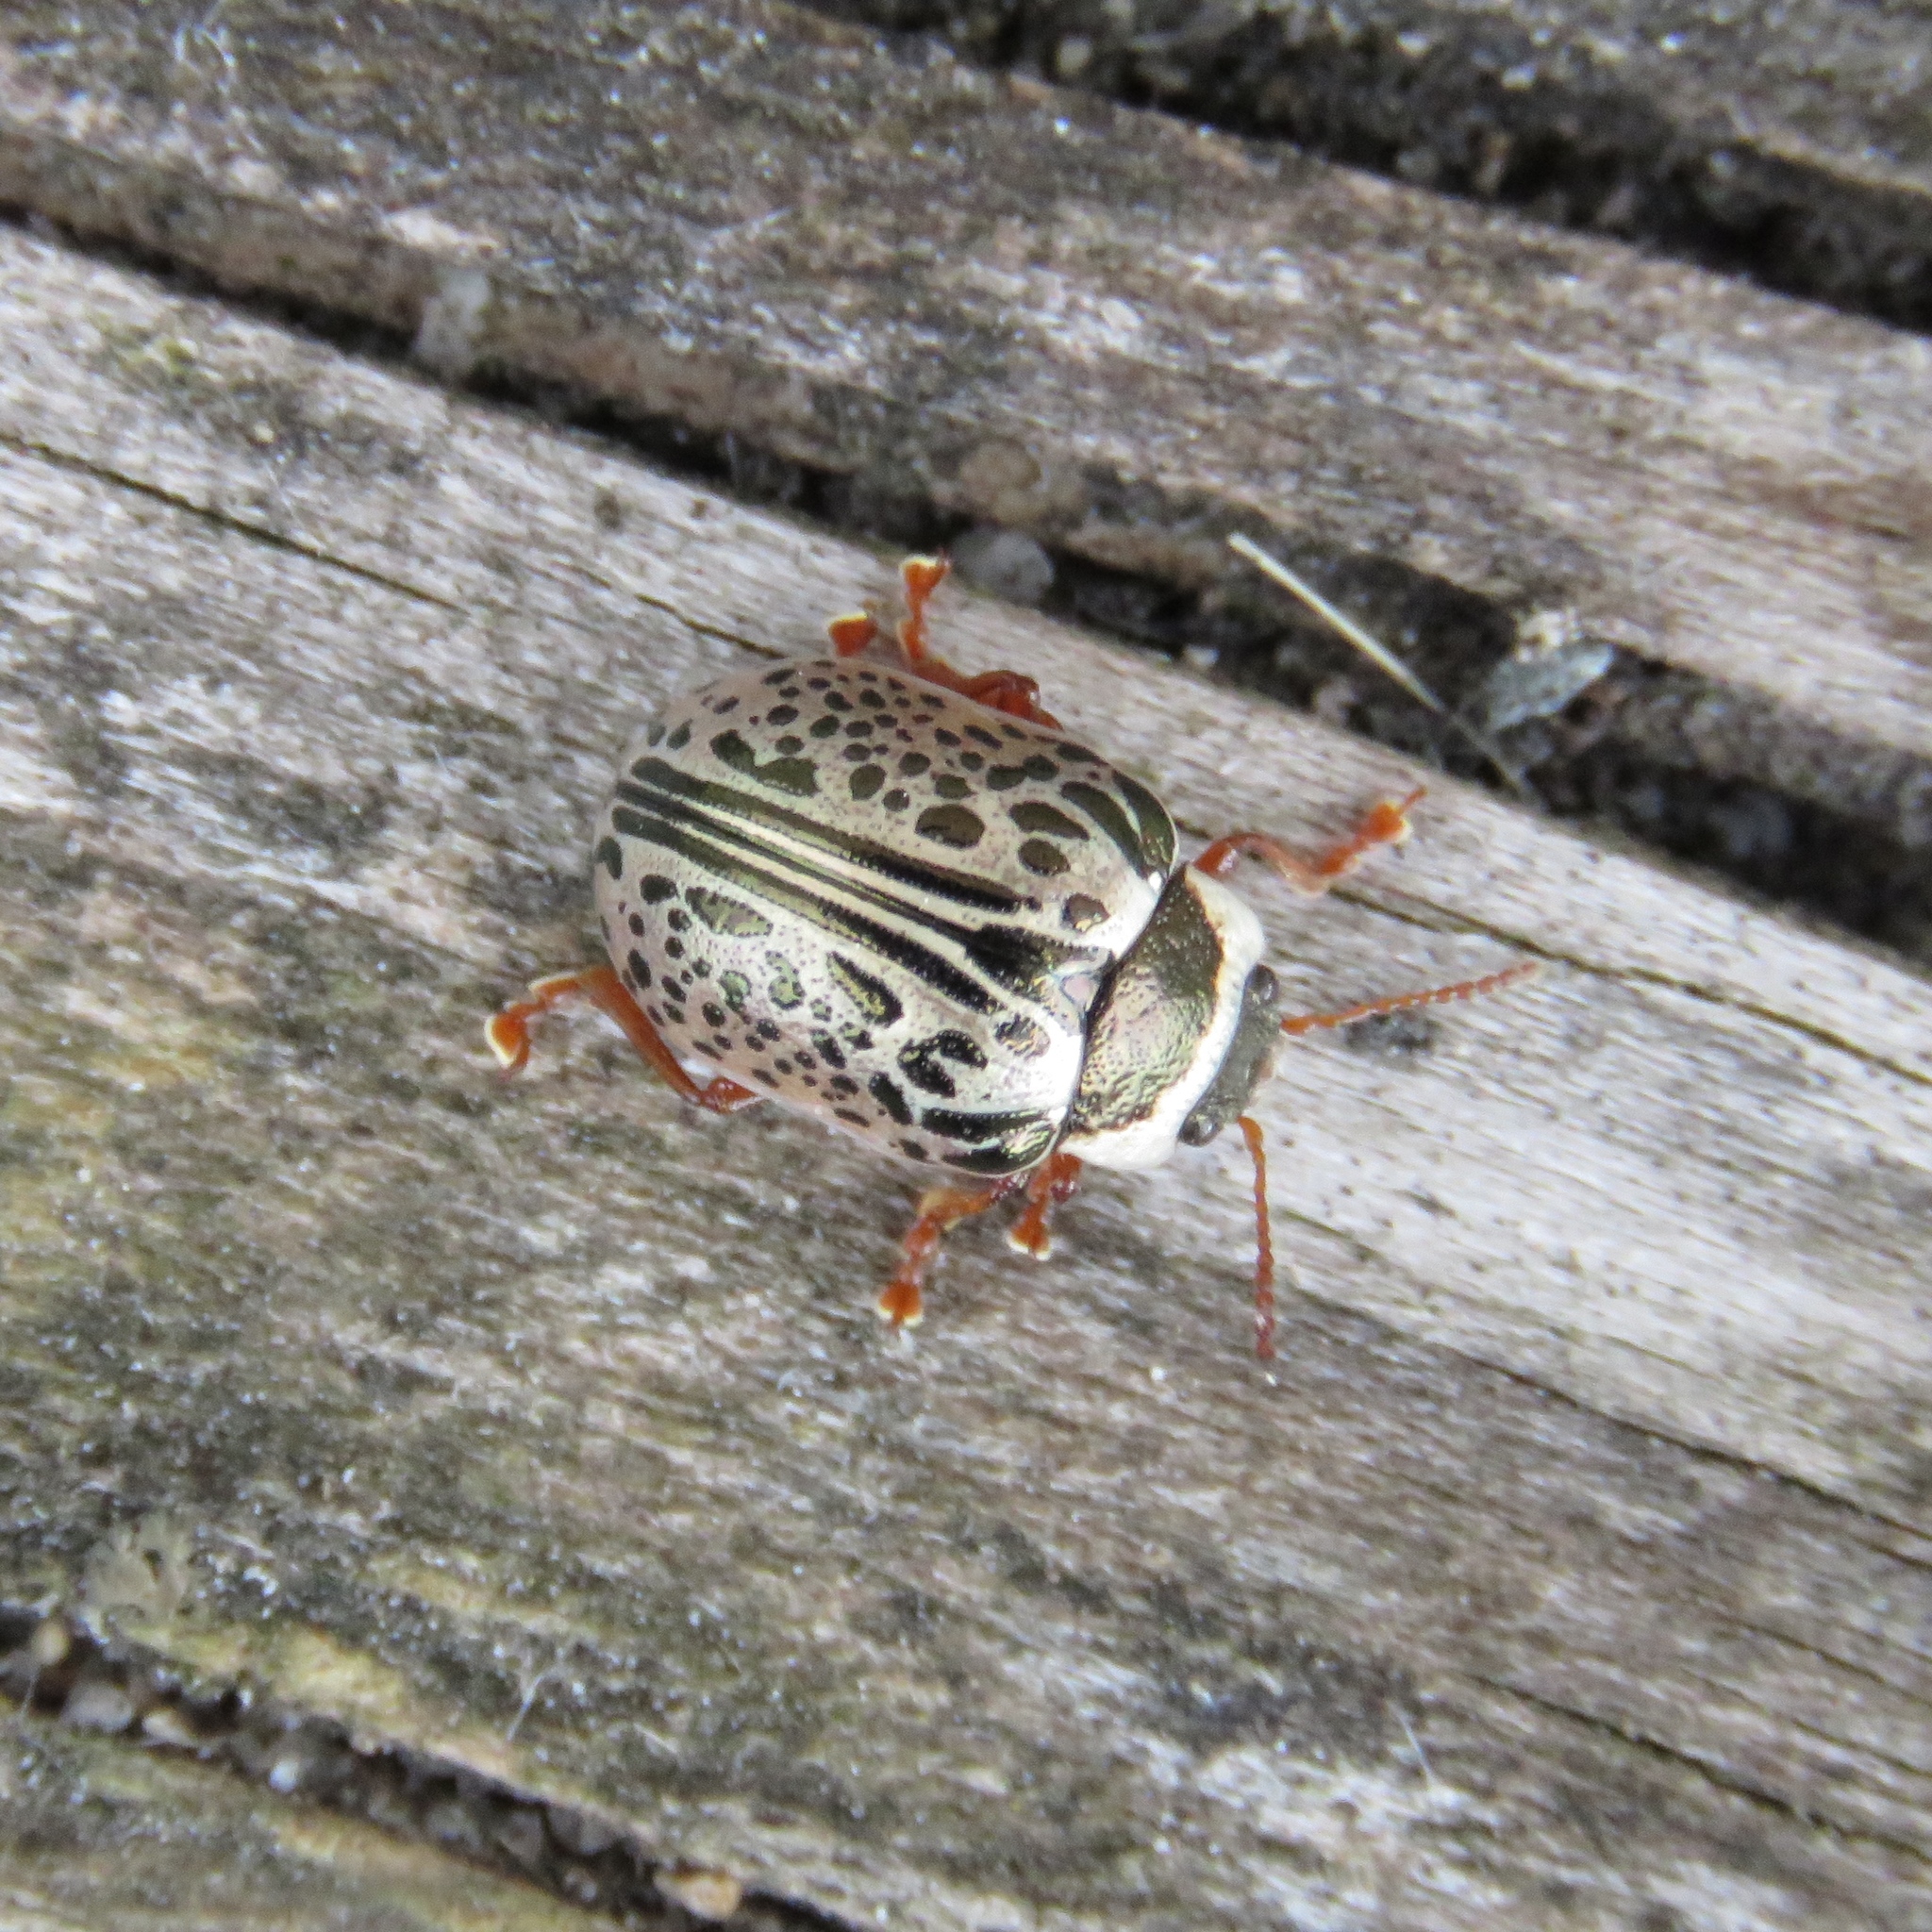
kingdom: Animalia
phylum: Arthropoda
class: Insecta
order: Coleoptera
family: Chrysomelidae
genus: Calligrapha
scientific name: Calligrapha multipunctata
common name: Common willow calligrapher beetle
